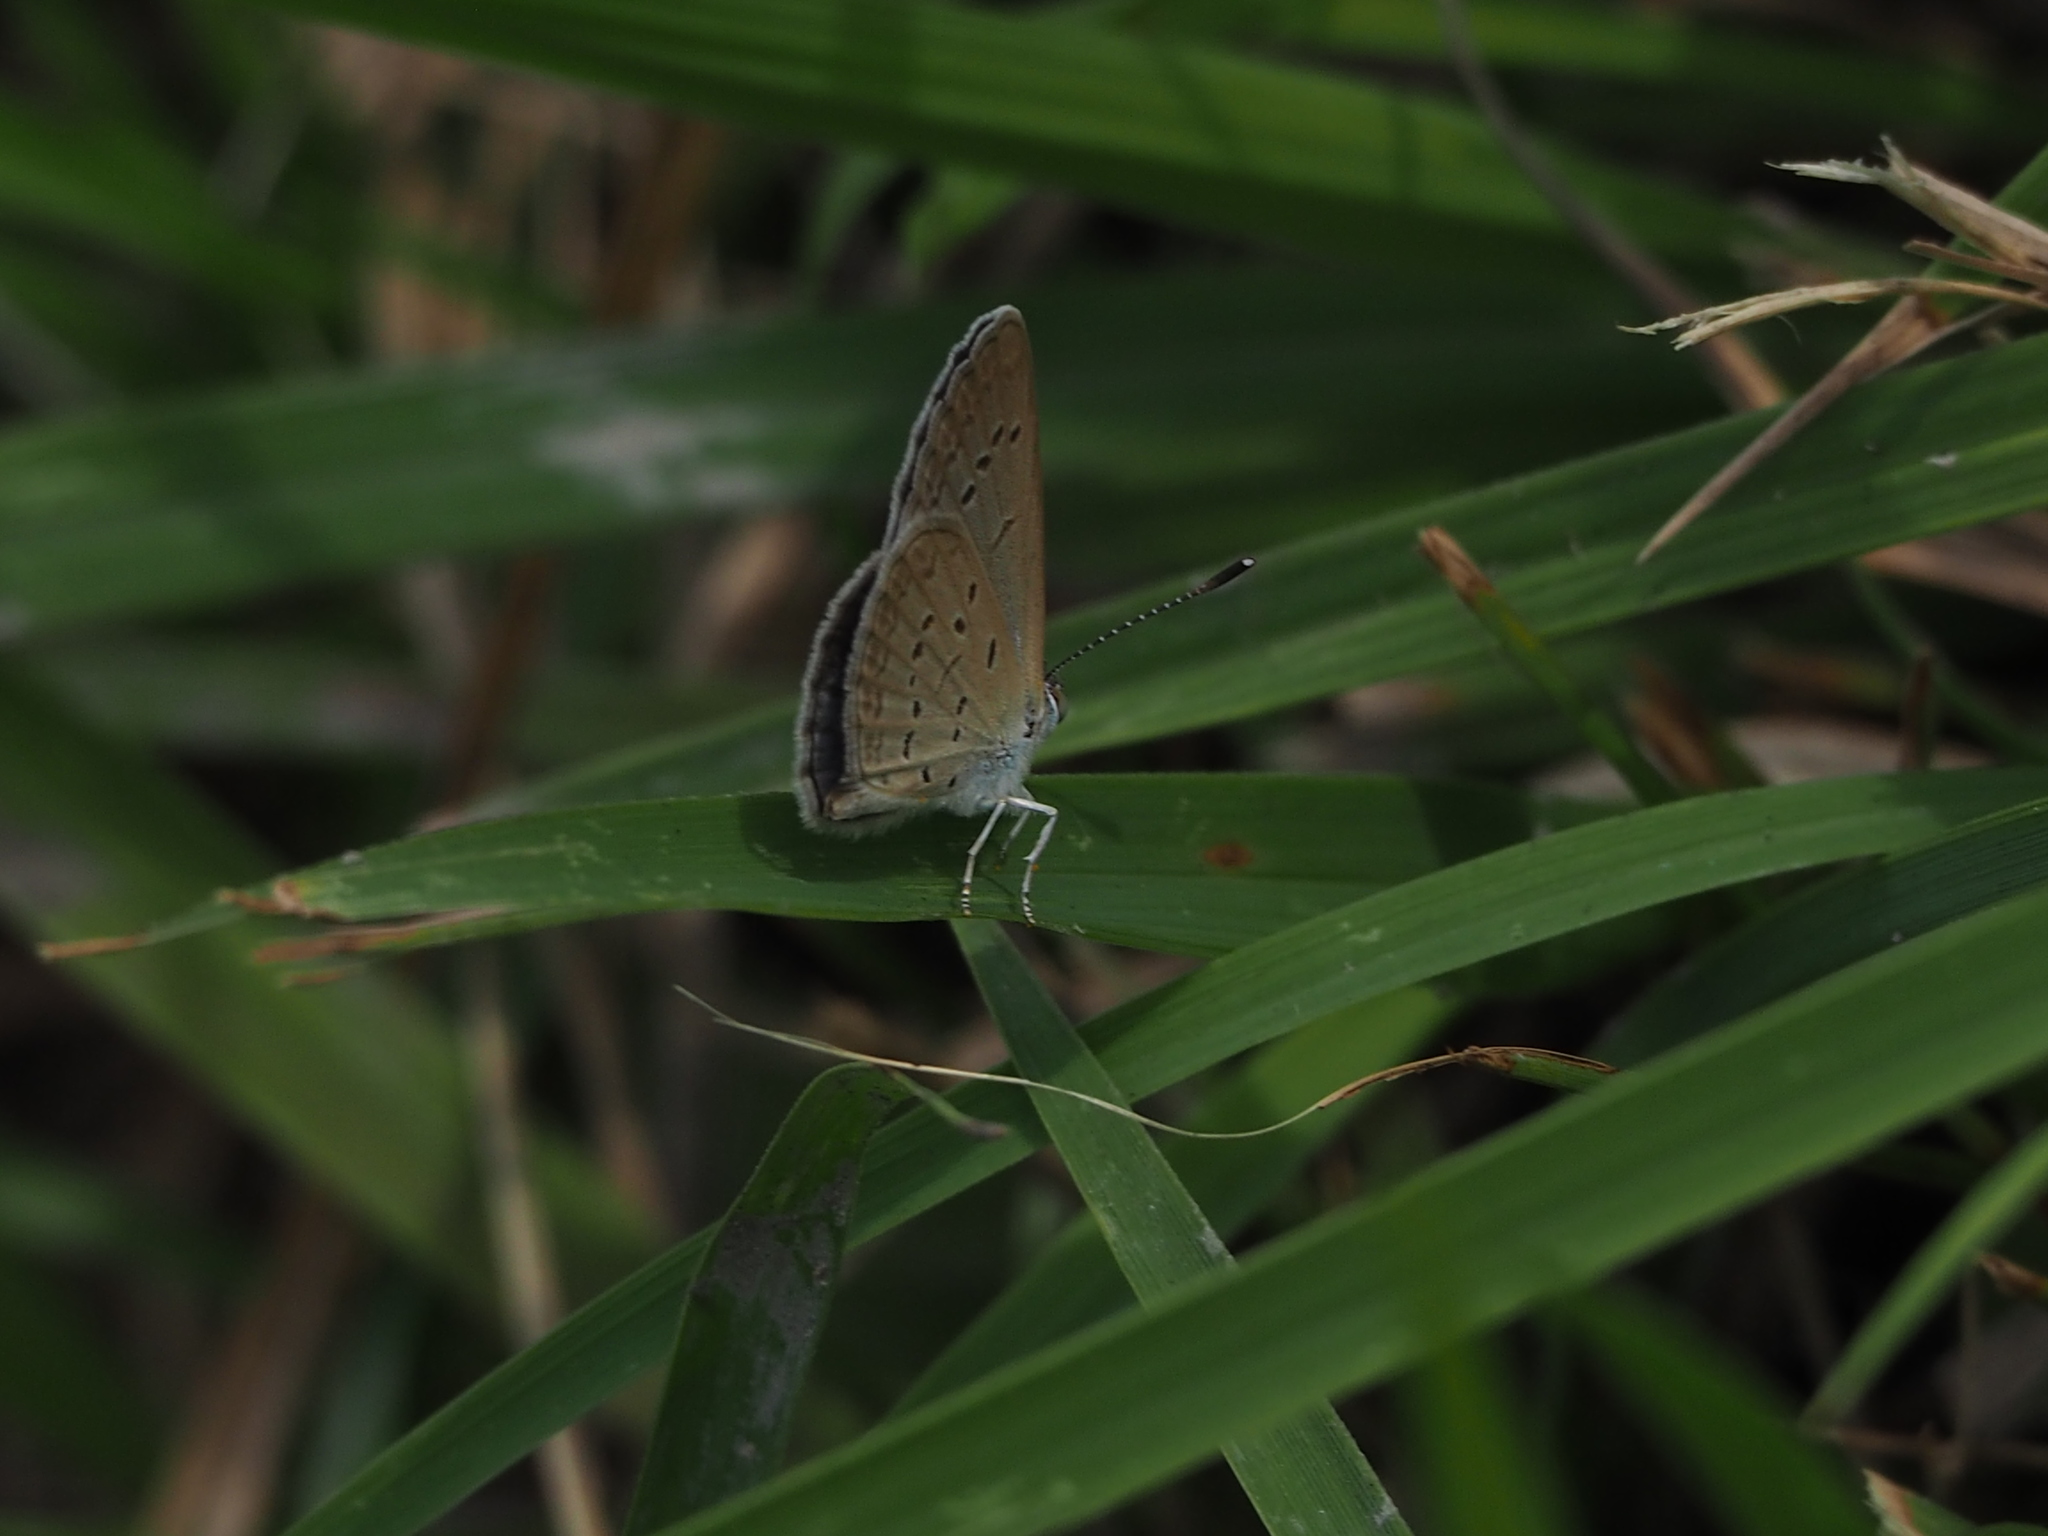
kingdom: Animalia
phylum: Arthropoda
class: Insecta
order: Lepidoptera
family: Lycaenidae
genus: Zizina
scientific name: Zizina otis
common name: Lesser grass blue
